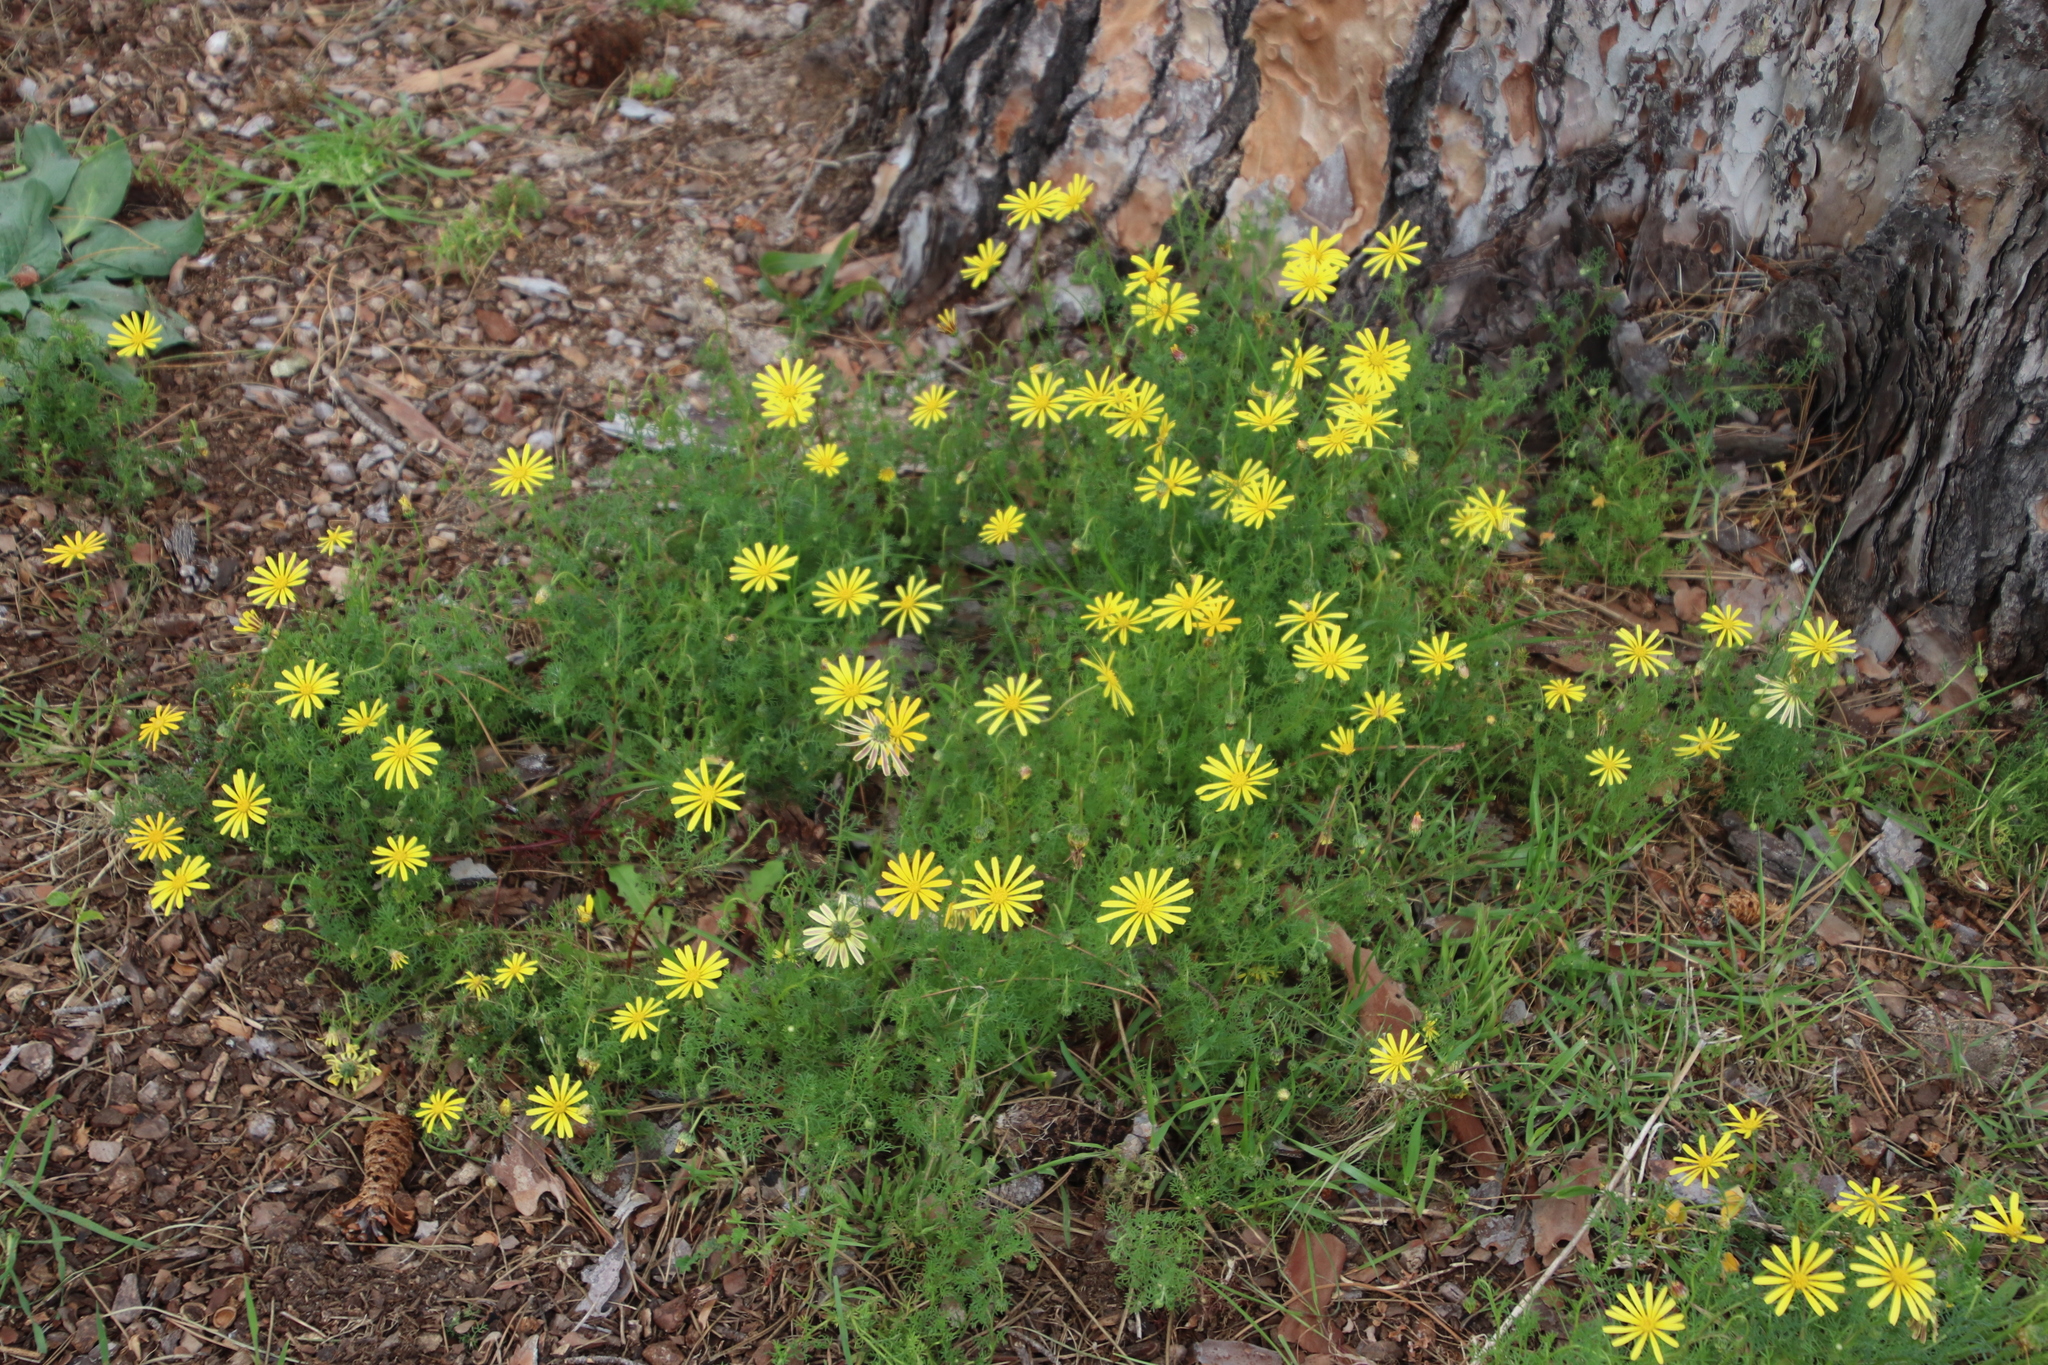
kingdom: Plantae
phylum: Tracheophyta
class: Magnoliopsida
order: Asterales
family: Asteraceae
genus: Ursinia
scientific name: Ursinia anthemoides
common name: Ursinia
